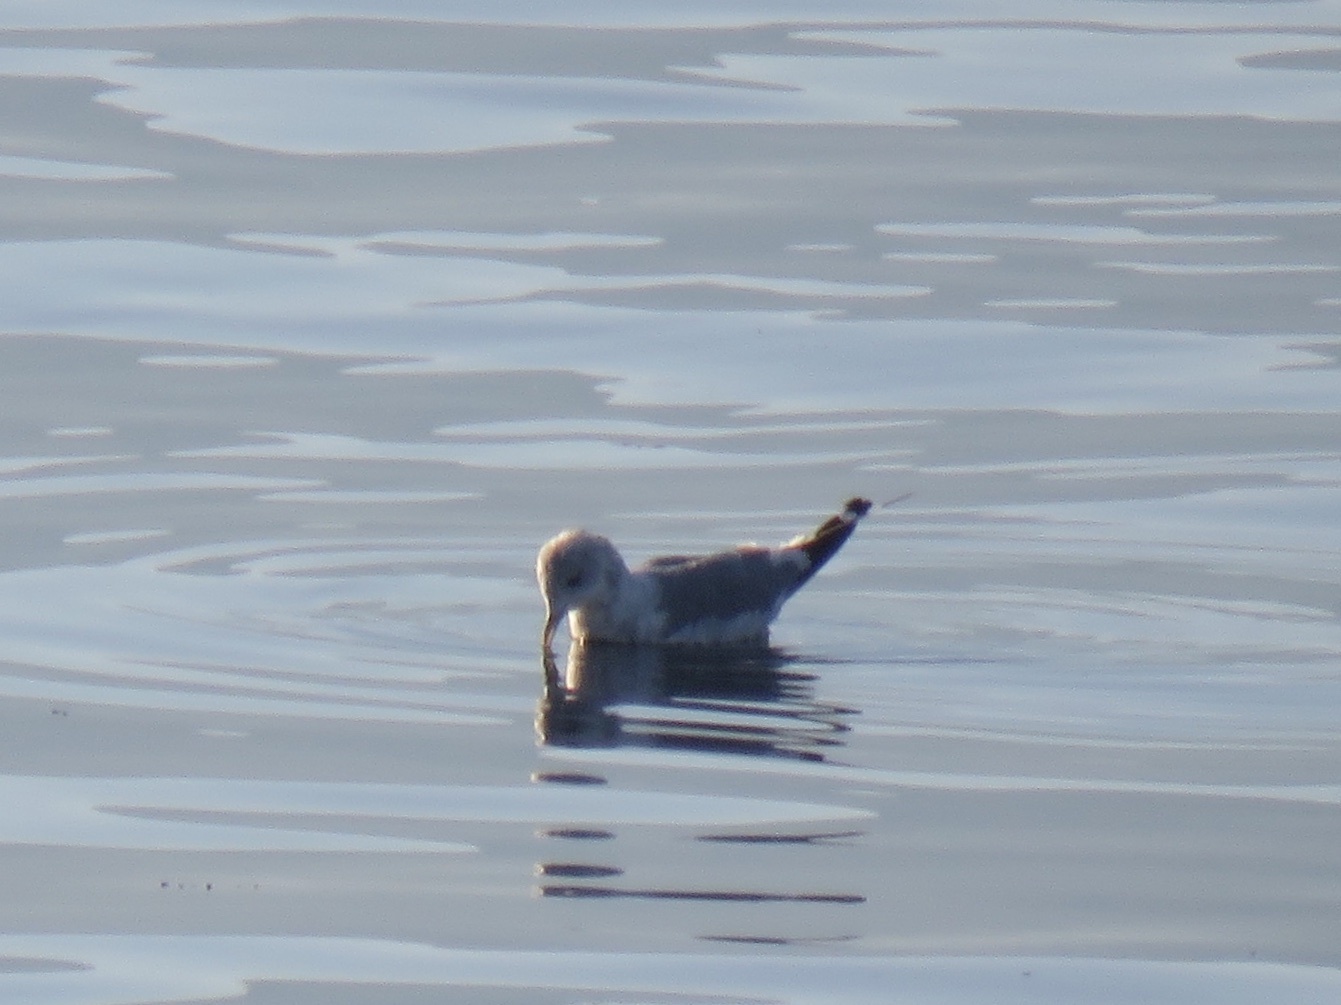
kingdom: Animalia
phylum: Chordata
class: Aves
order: Charadriiformes
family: Laridae
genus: Larus
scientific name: Larus brachyrhynchus
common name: Short-billed gull
